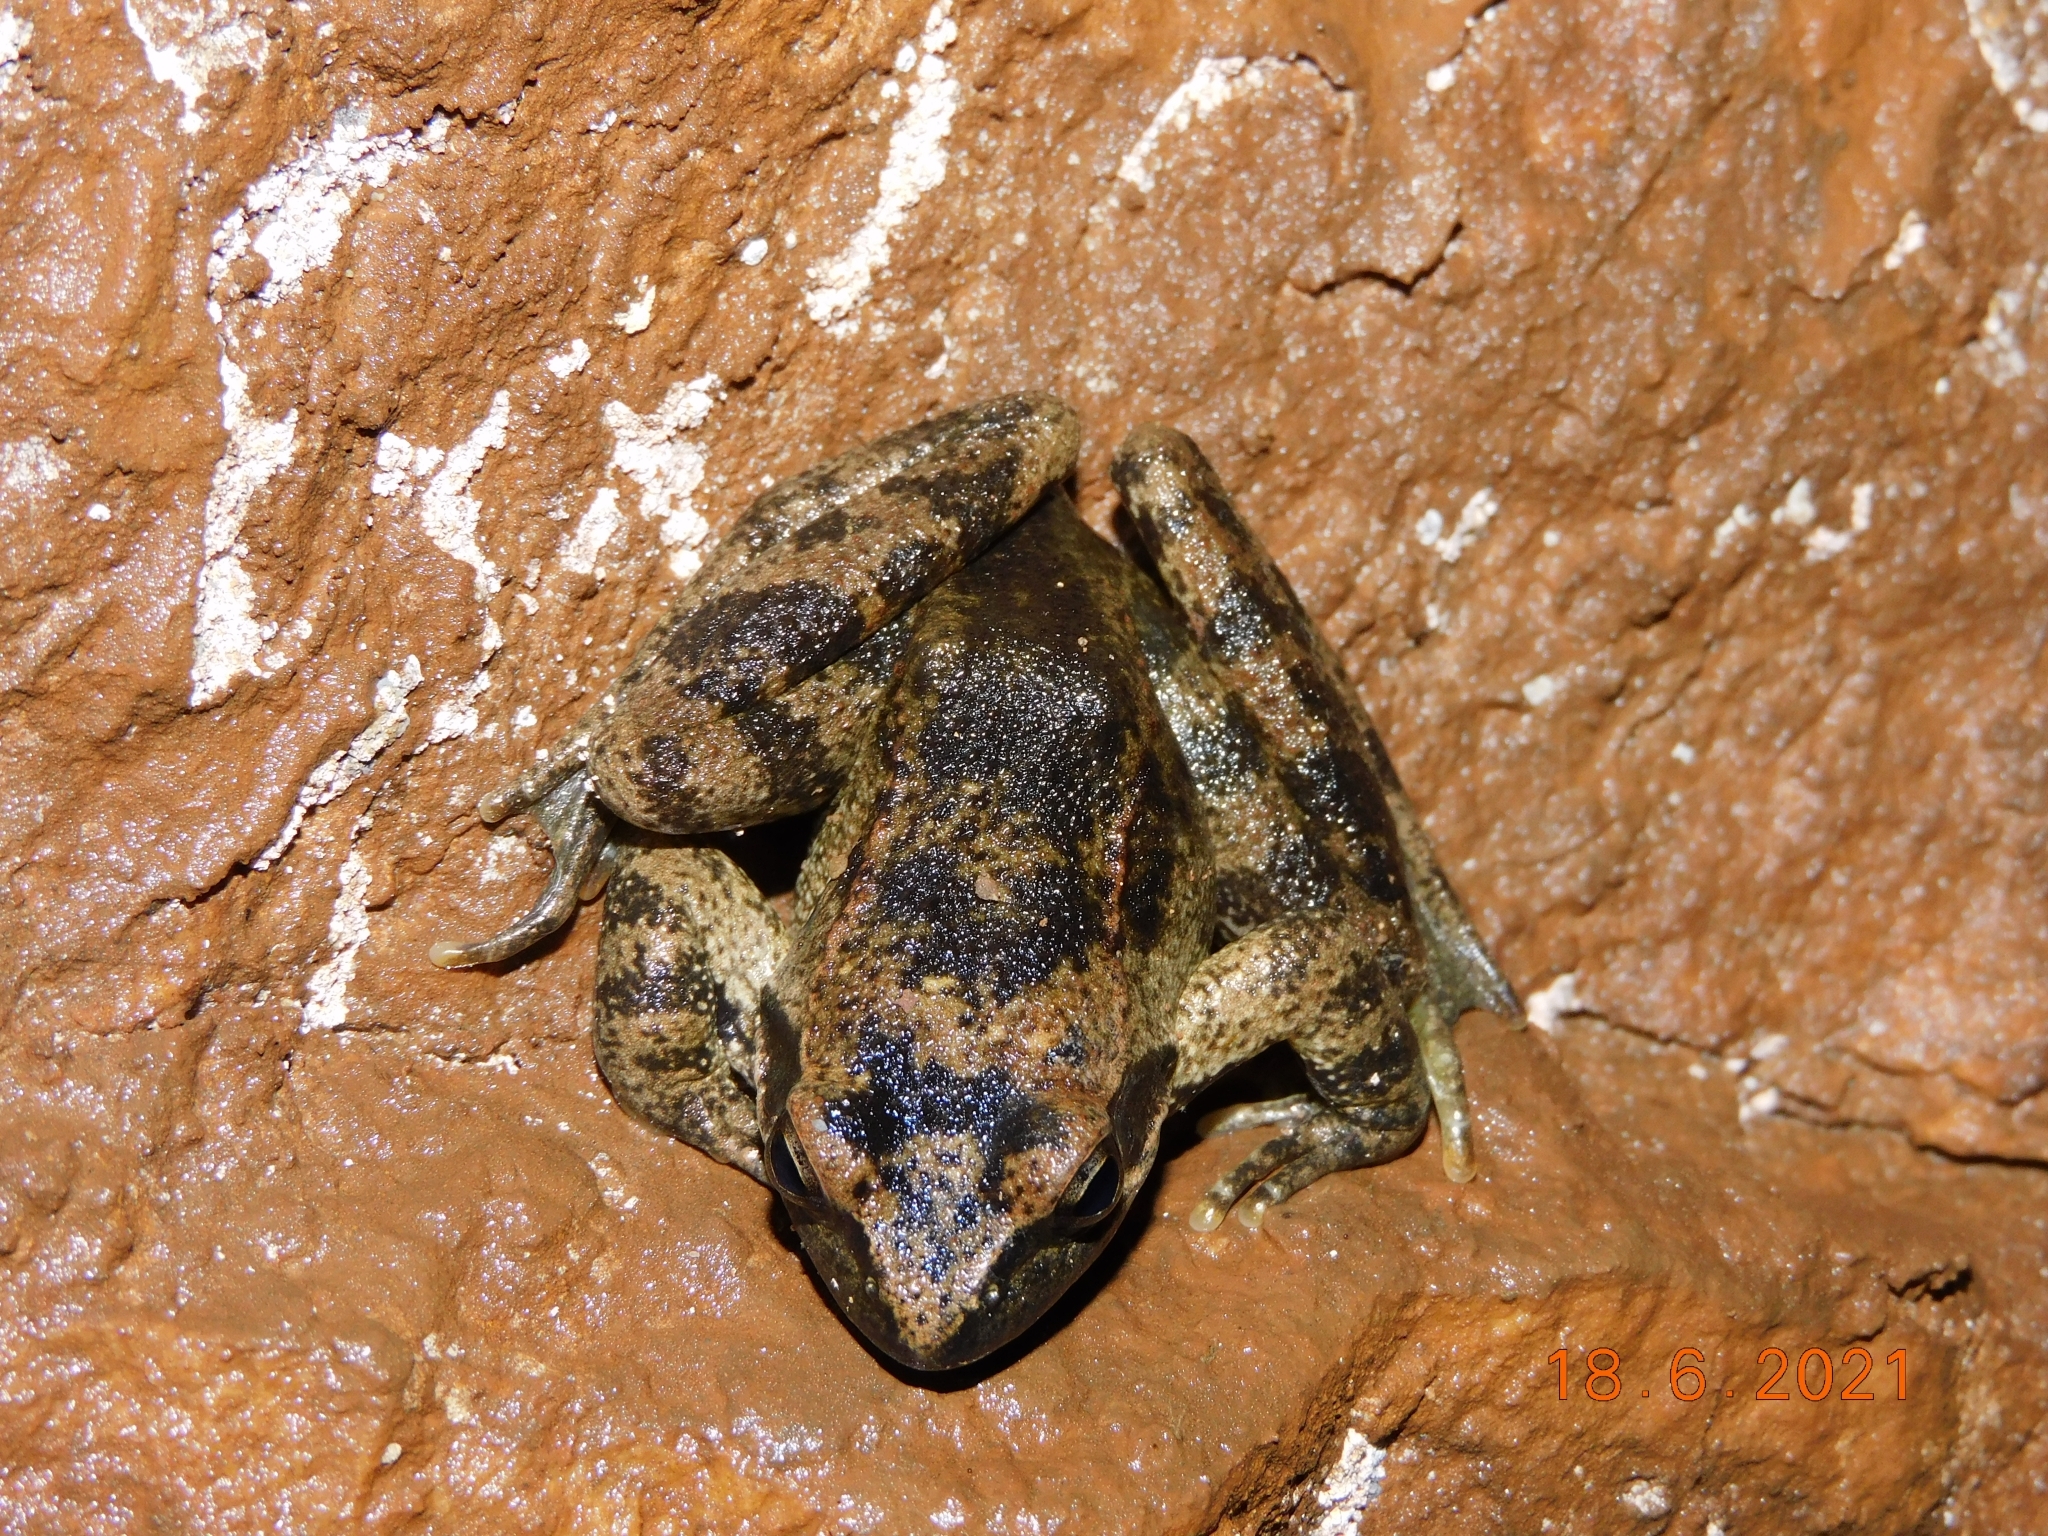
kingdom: Animalia
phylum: Chordata
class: Amphibia
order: Anura
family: Ranidae
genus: Rana
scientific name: Rana italica
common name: Italian stream frog
